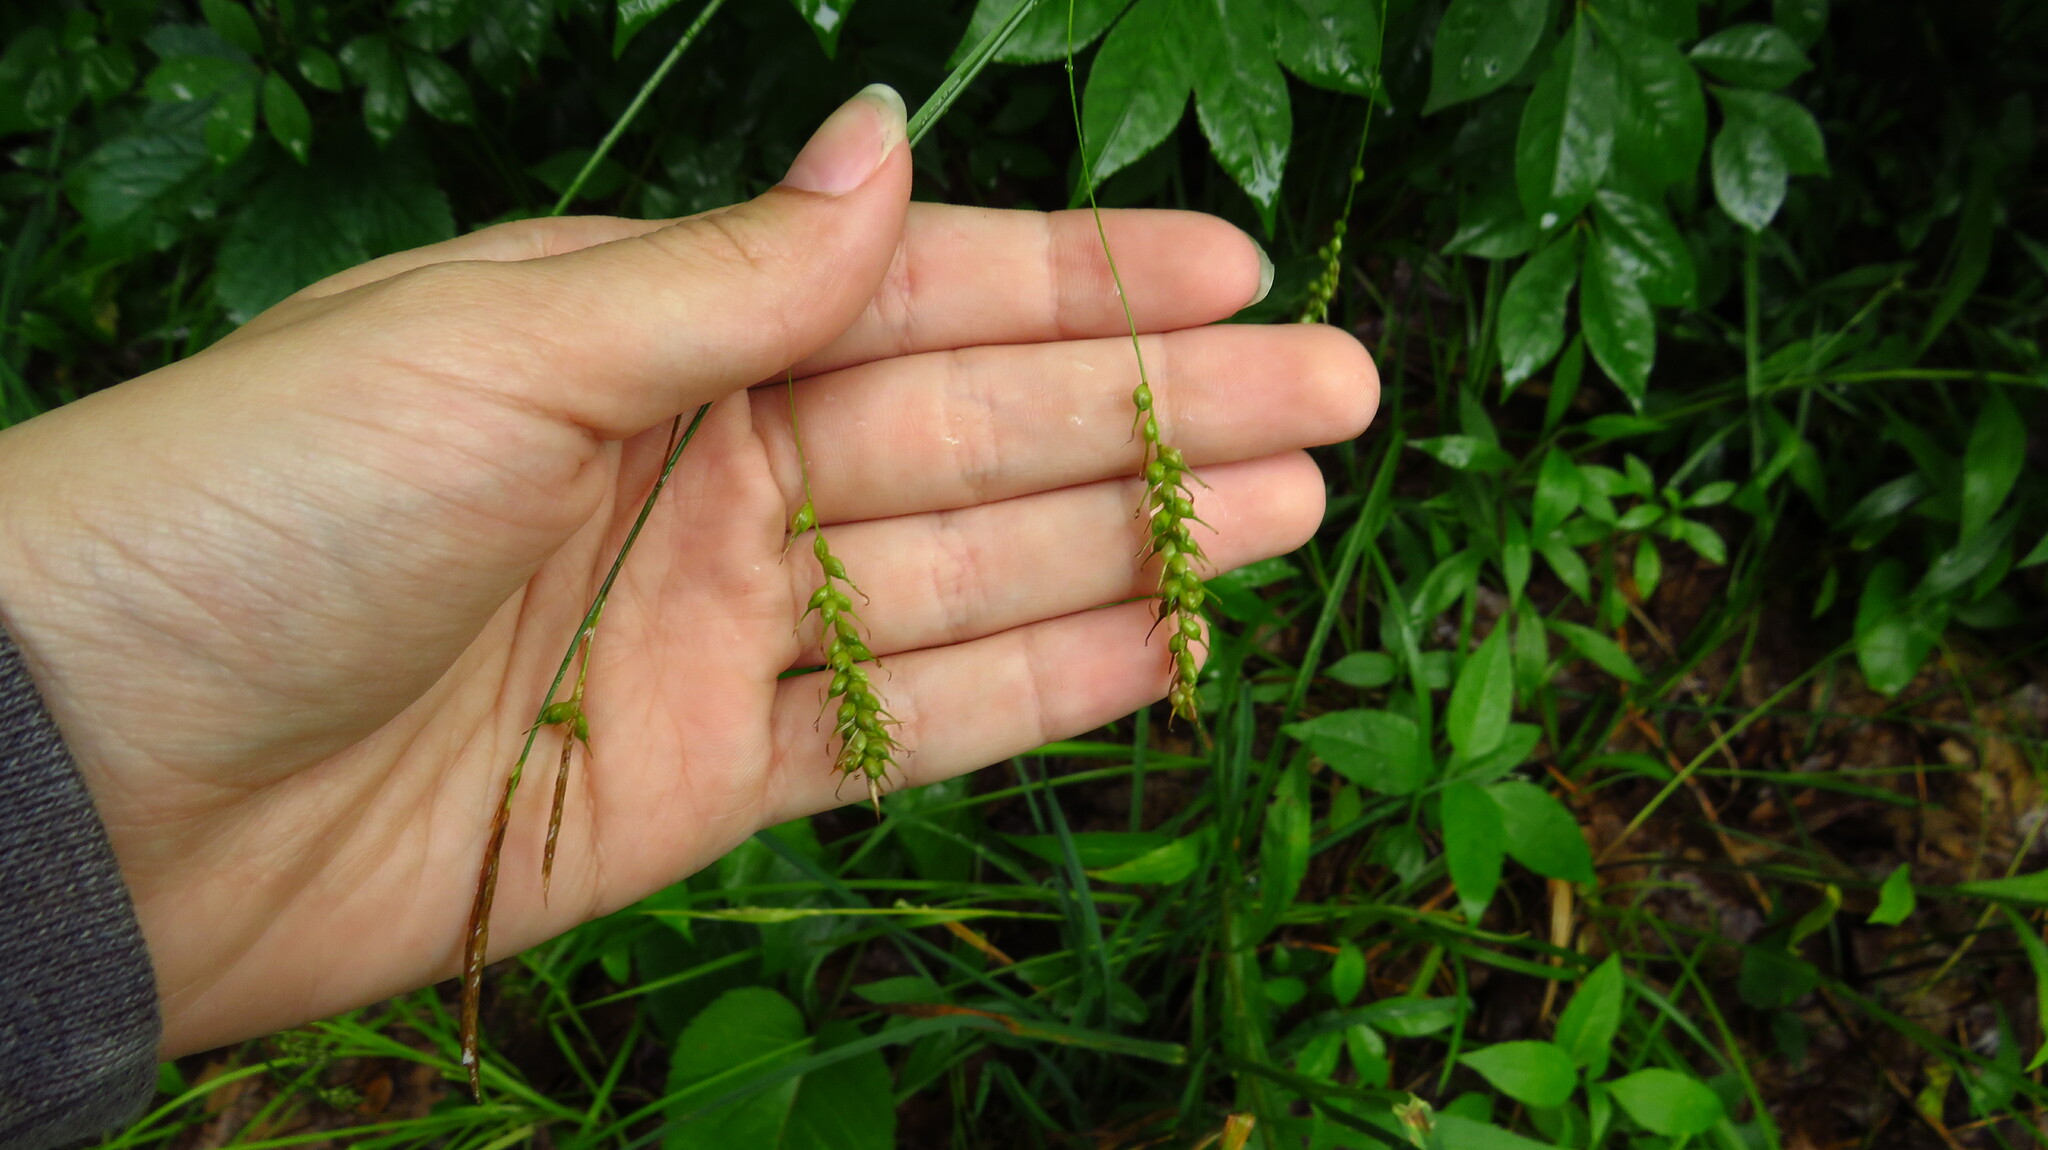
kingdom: Plantae
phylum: Tracheophyta
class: Liliopsida
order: Poales
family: Cyperaceae
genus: Carex
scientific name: Carex sprengelii
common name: Long-beaked sedge
